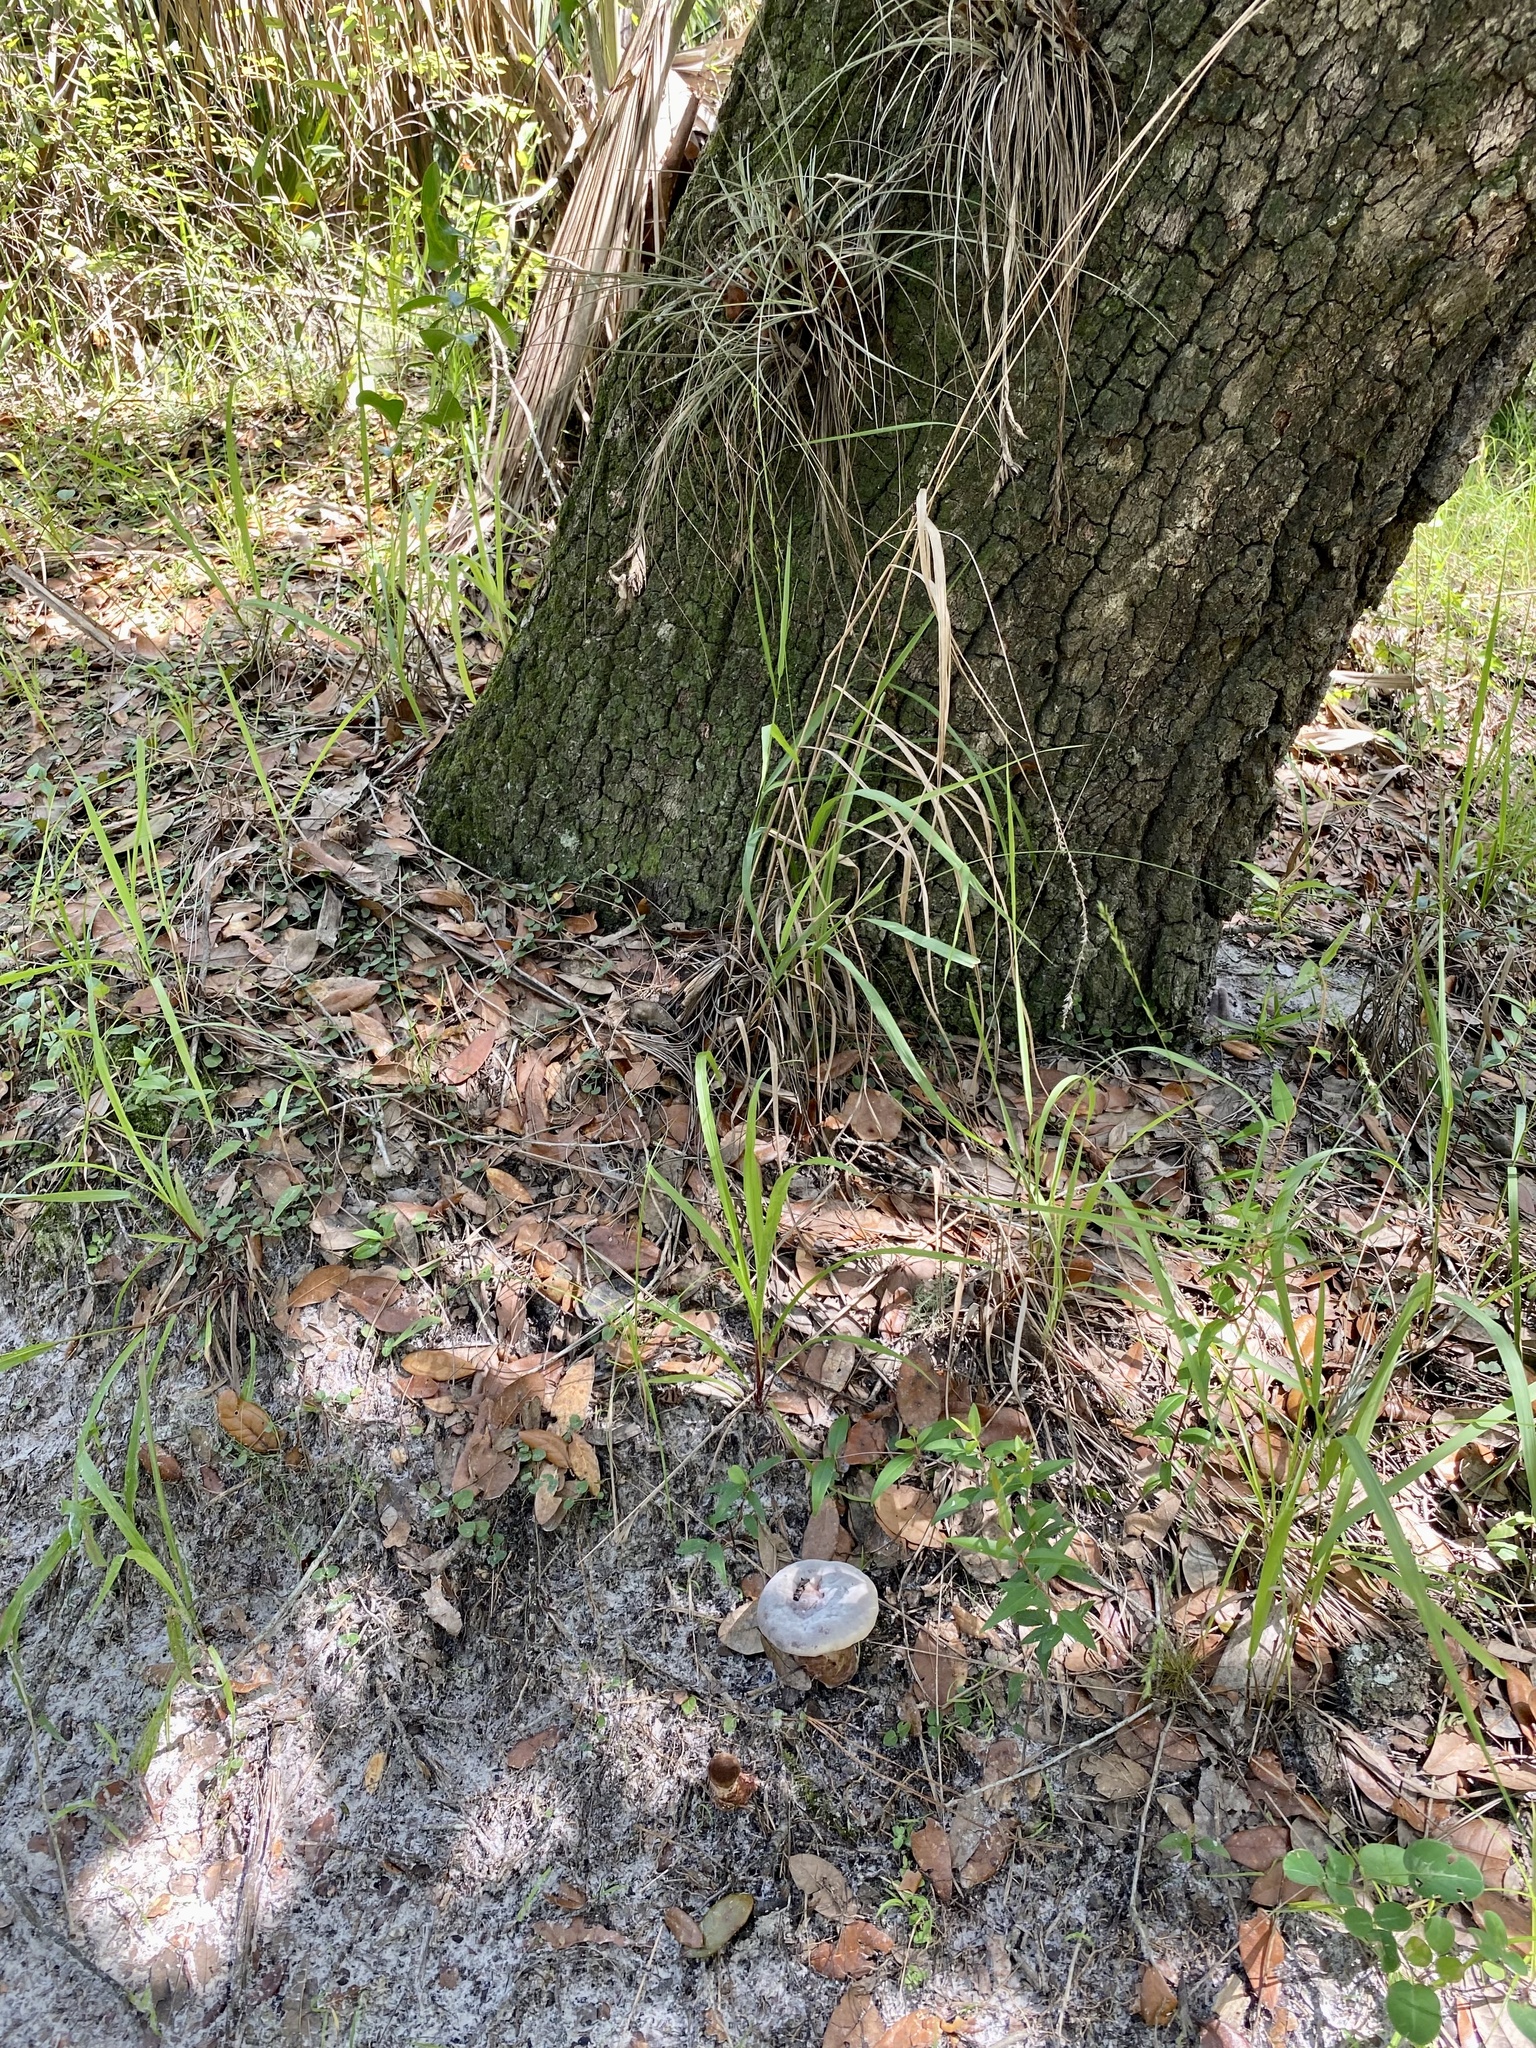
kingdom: Fungi
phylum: Basidiomycota
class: Agaricomycetes
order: Polyporales
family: Laetiporaceae
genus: Berkcurtia
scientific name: Berkcurtia persicina
